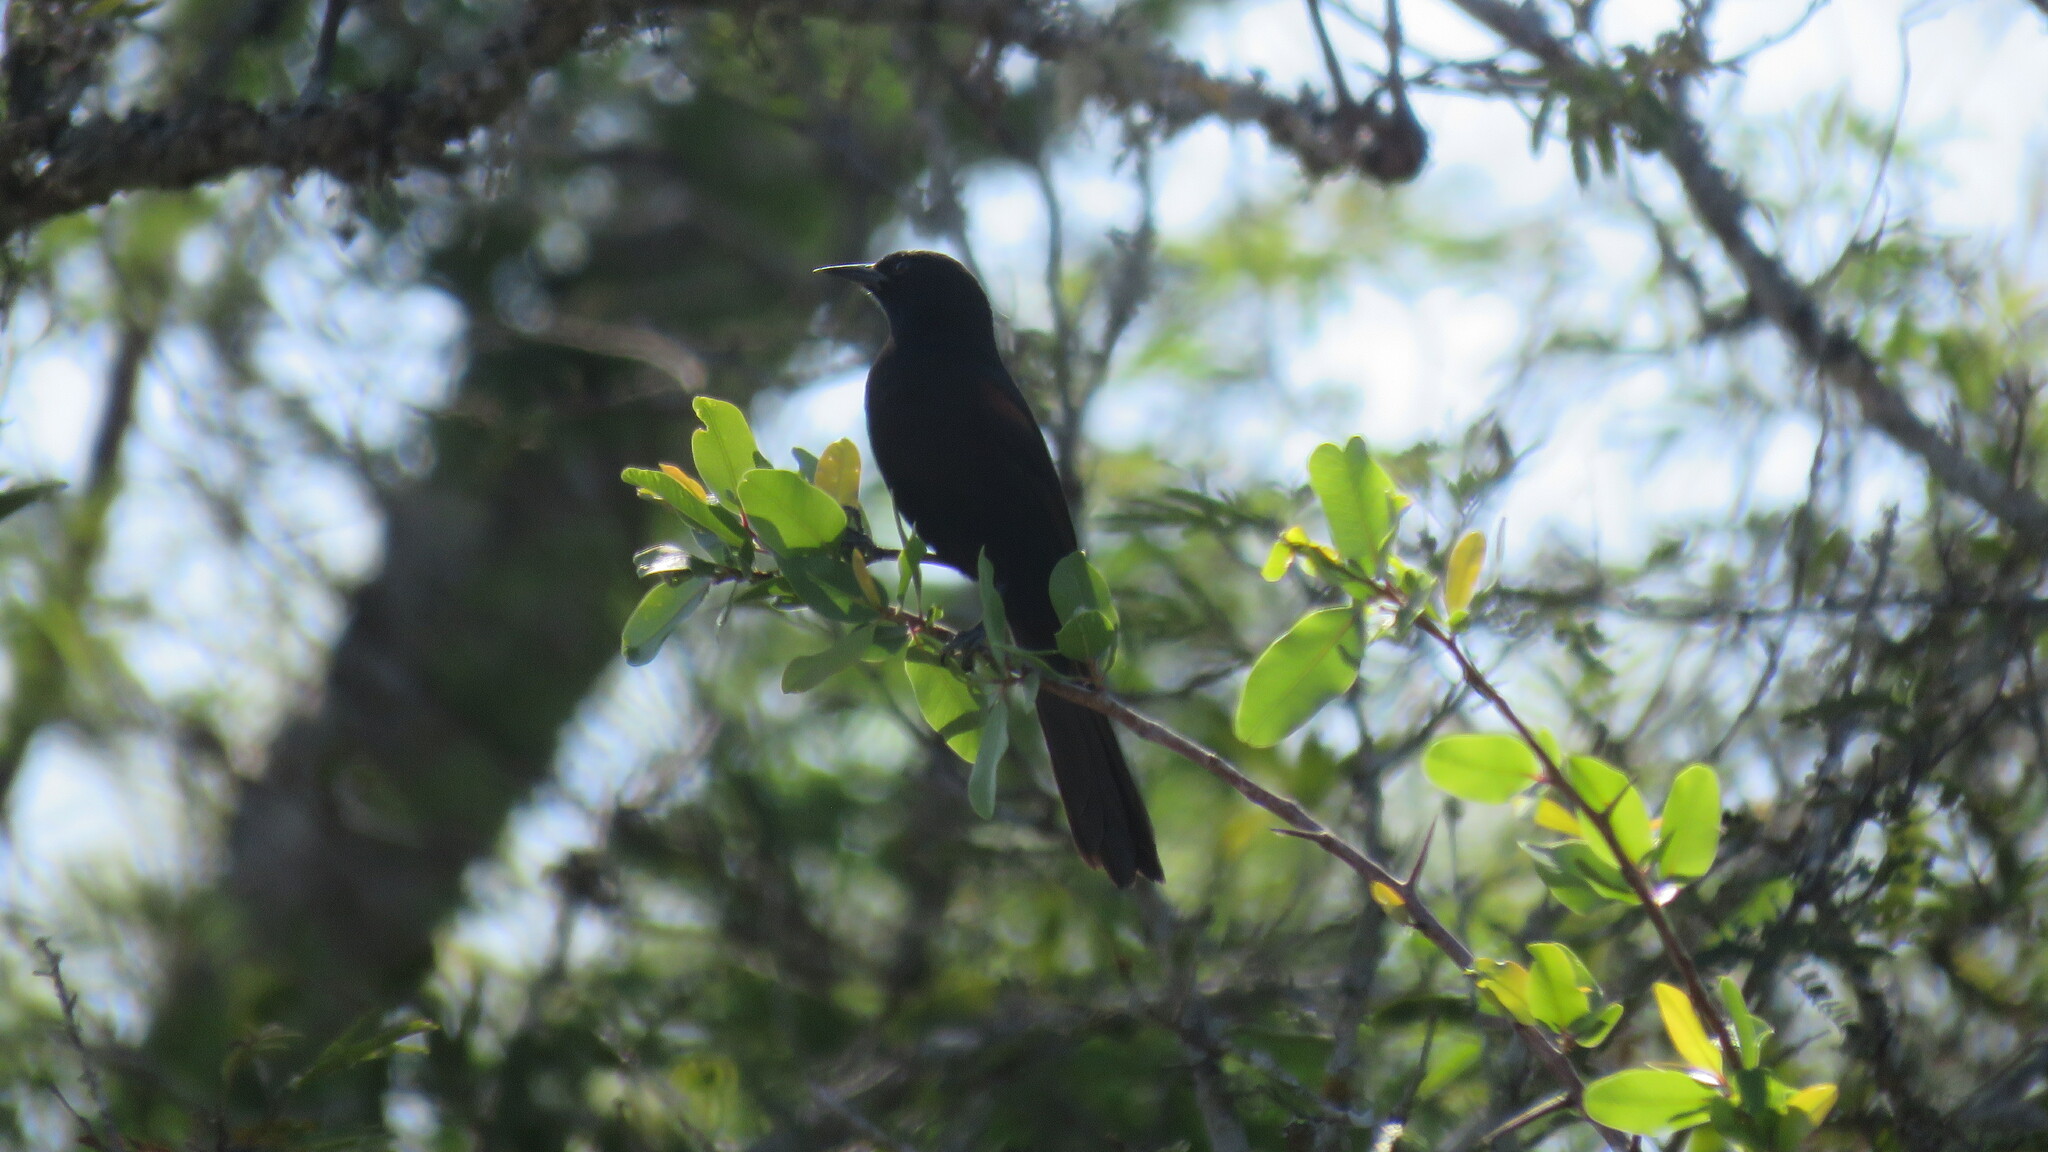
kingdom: Animalia
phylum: Chordata
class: Aves
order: Passeriformes
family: Icteridae
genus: Icterus
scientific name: Icterus cayanensis
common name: Epaulet oriole
